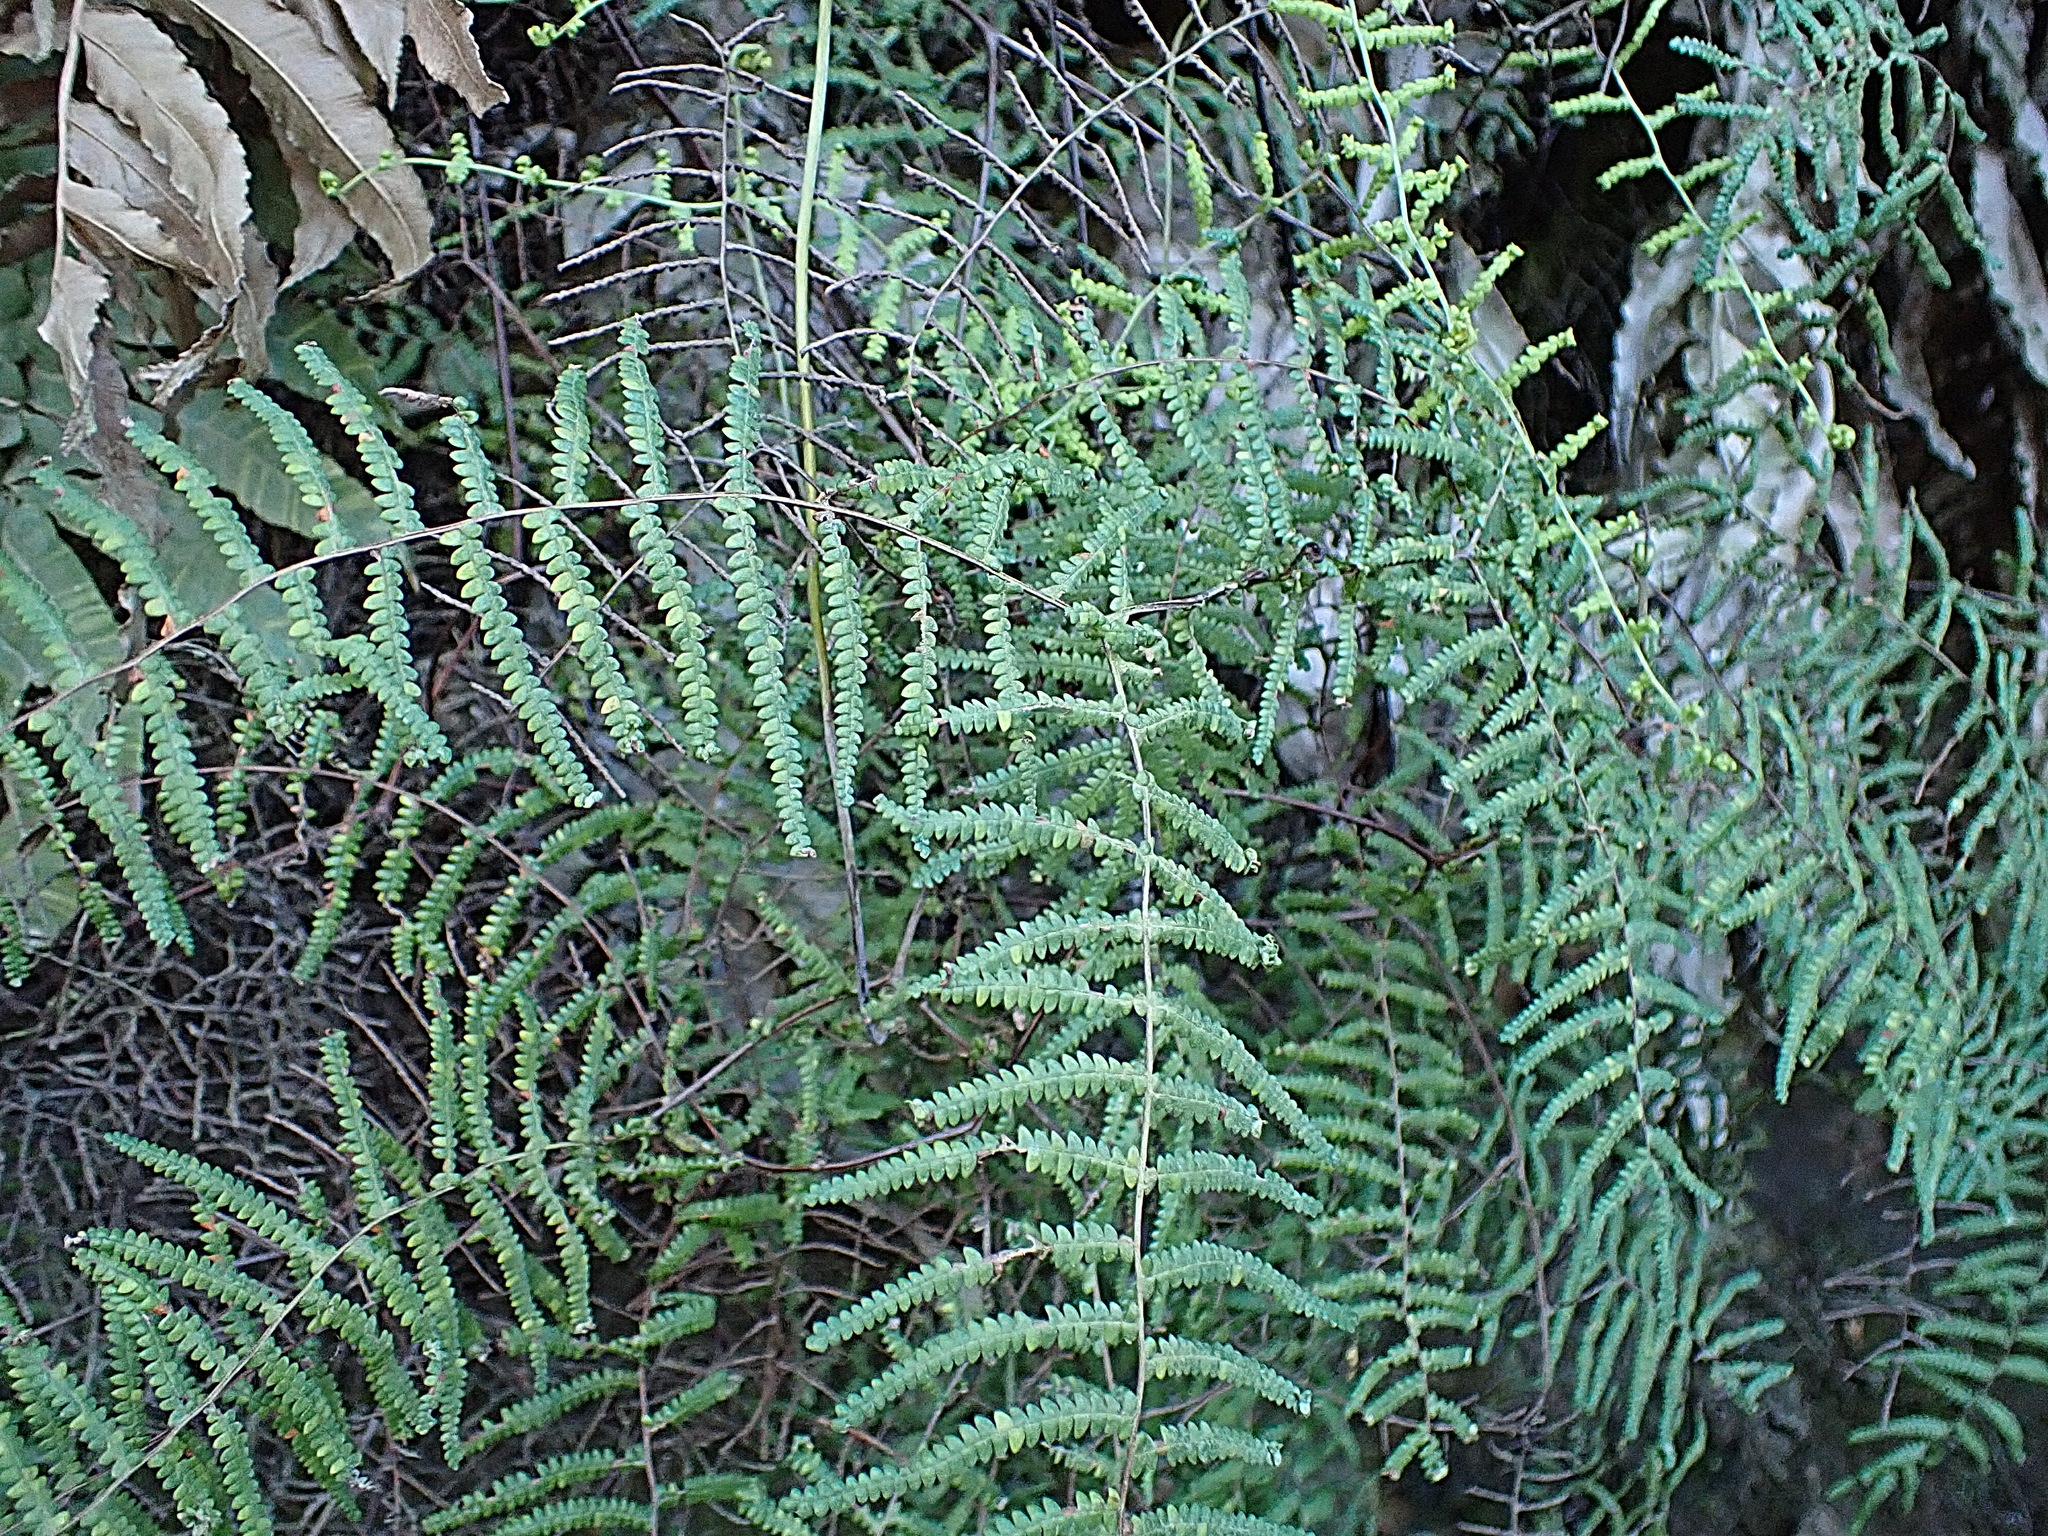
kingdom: Plantae
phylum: Tracheophyta
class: Polypodiopsida
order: Gleicheniales
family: Gleicheniaceae
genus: Gleichenia
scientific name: Gleichenia polypodioides
